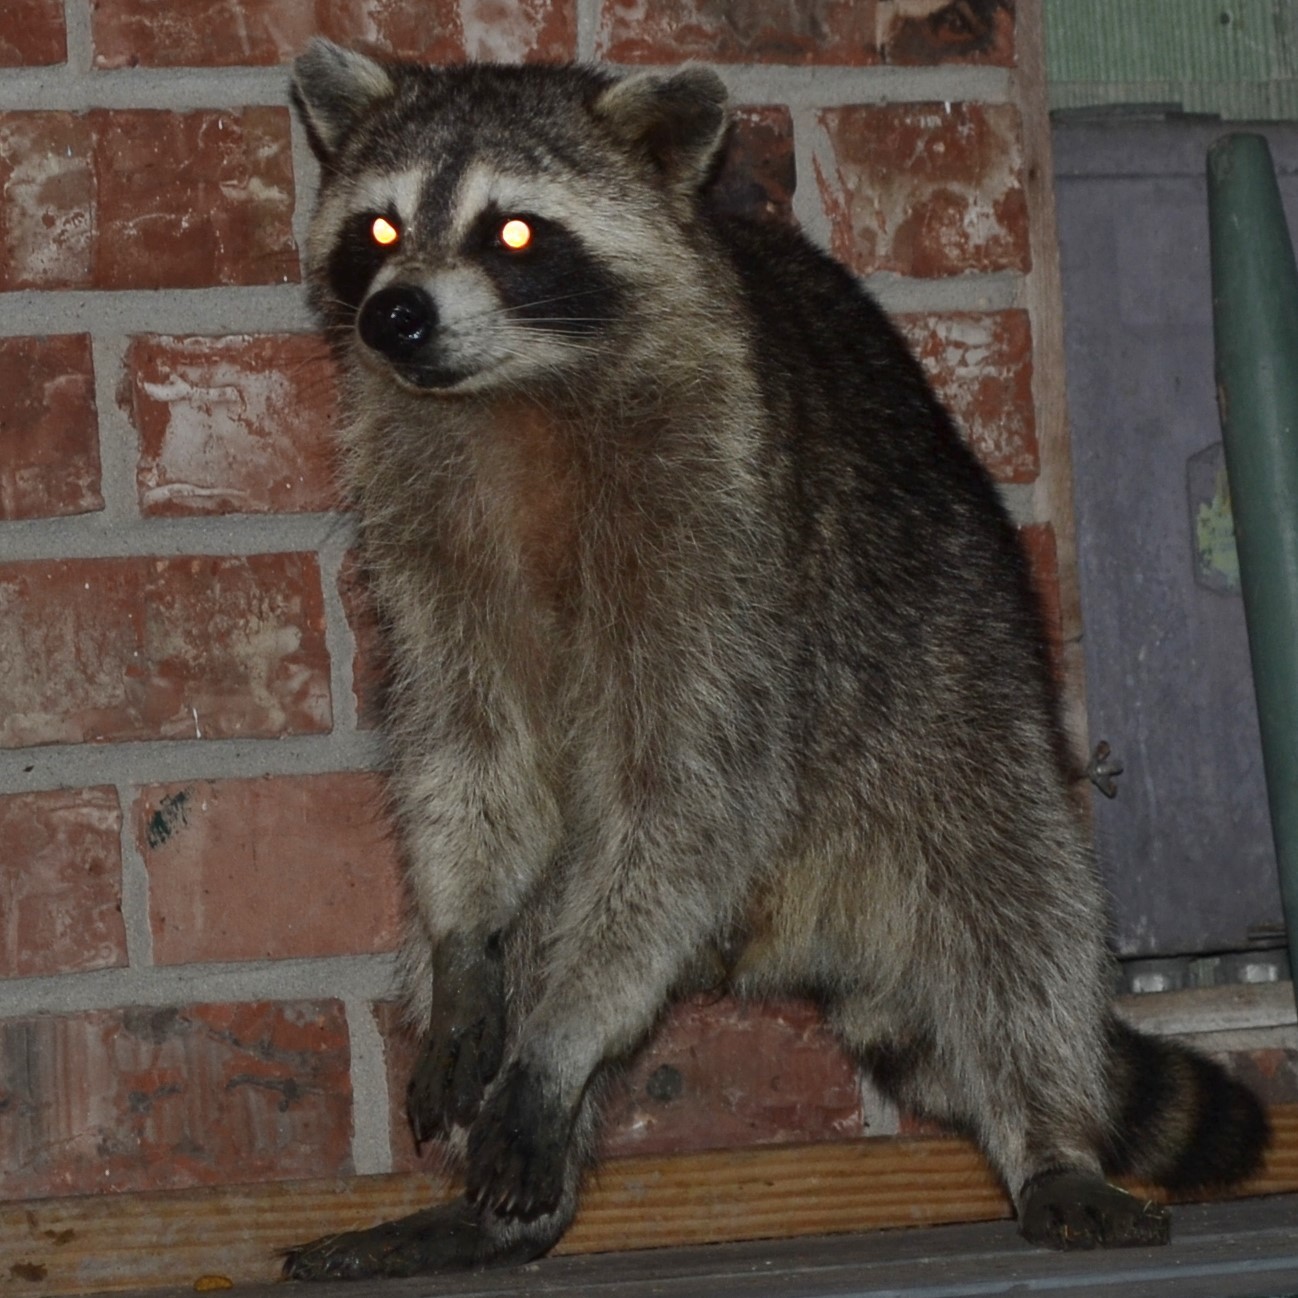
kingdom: Animalia
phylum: Chordata
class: Mammalia
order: Carnivora
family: Procyonidae
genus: Procyon
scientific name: Procyon lotor
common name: Raccoon
